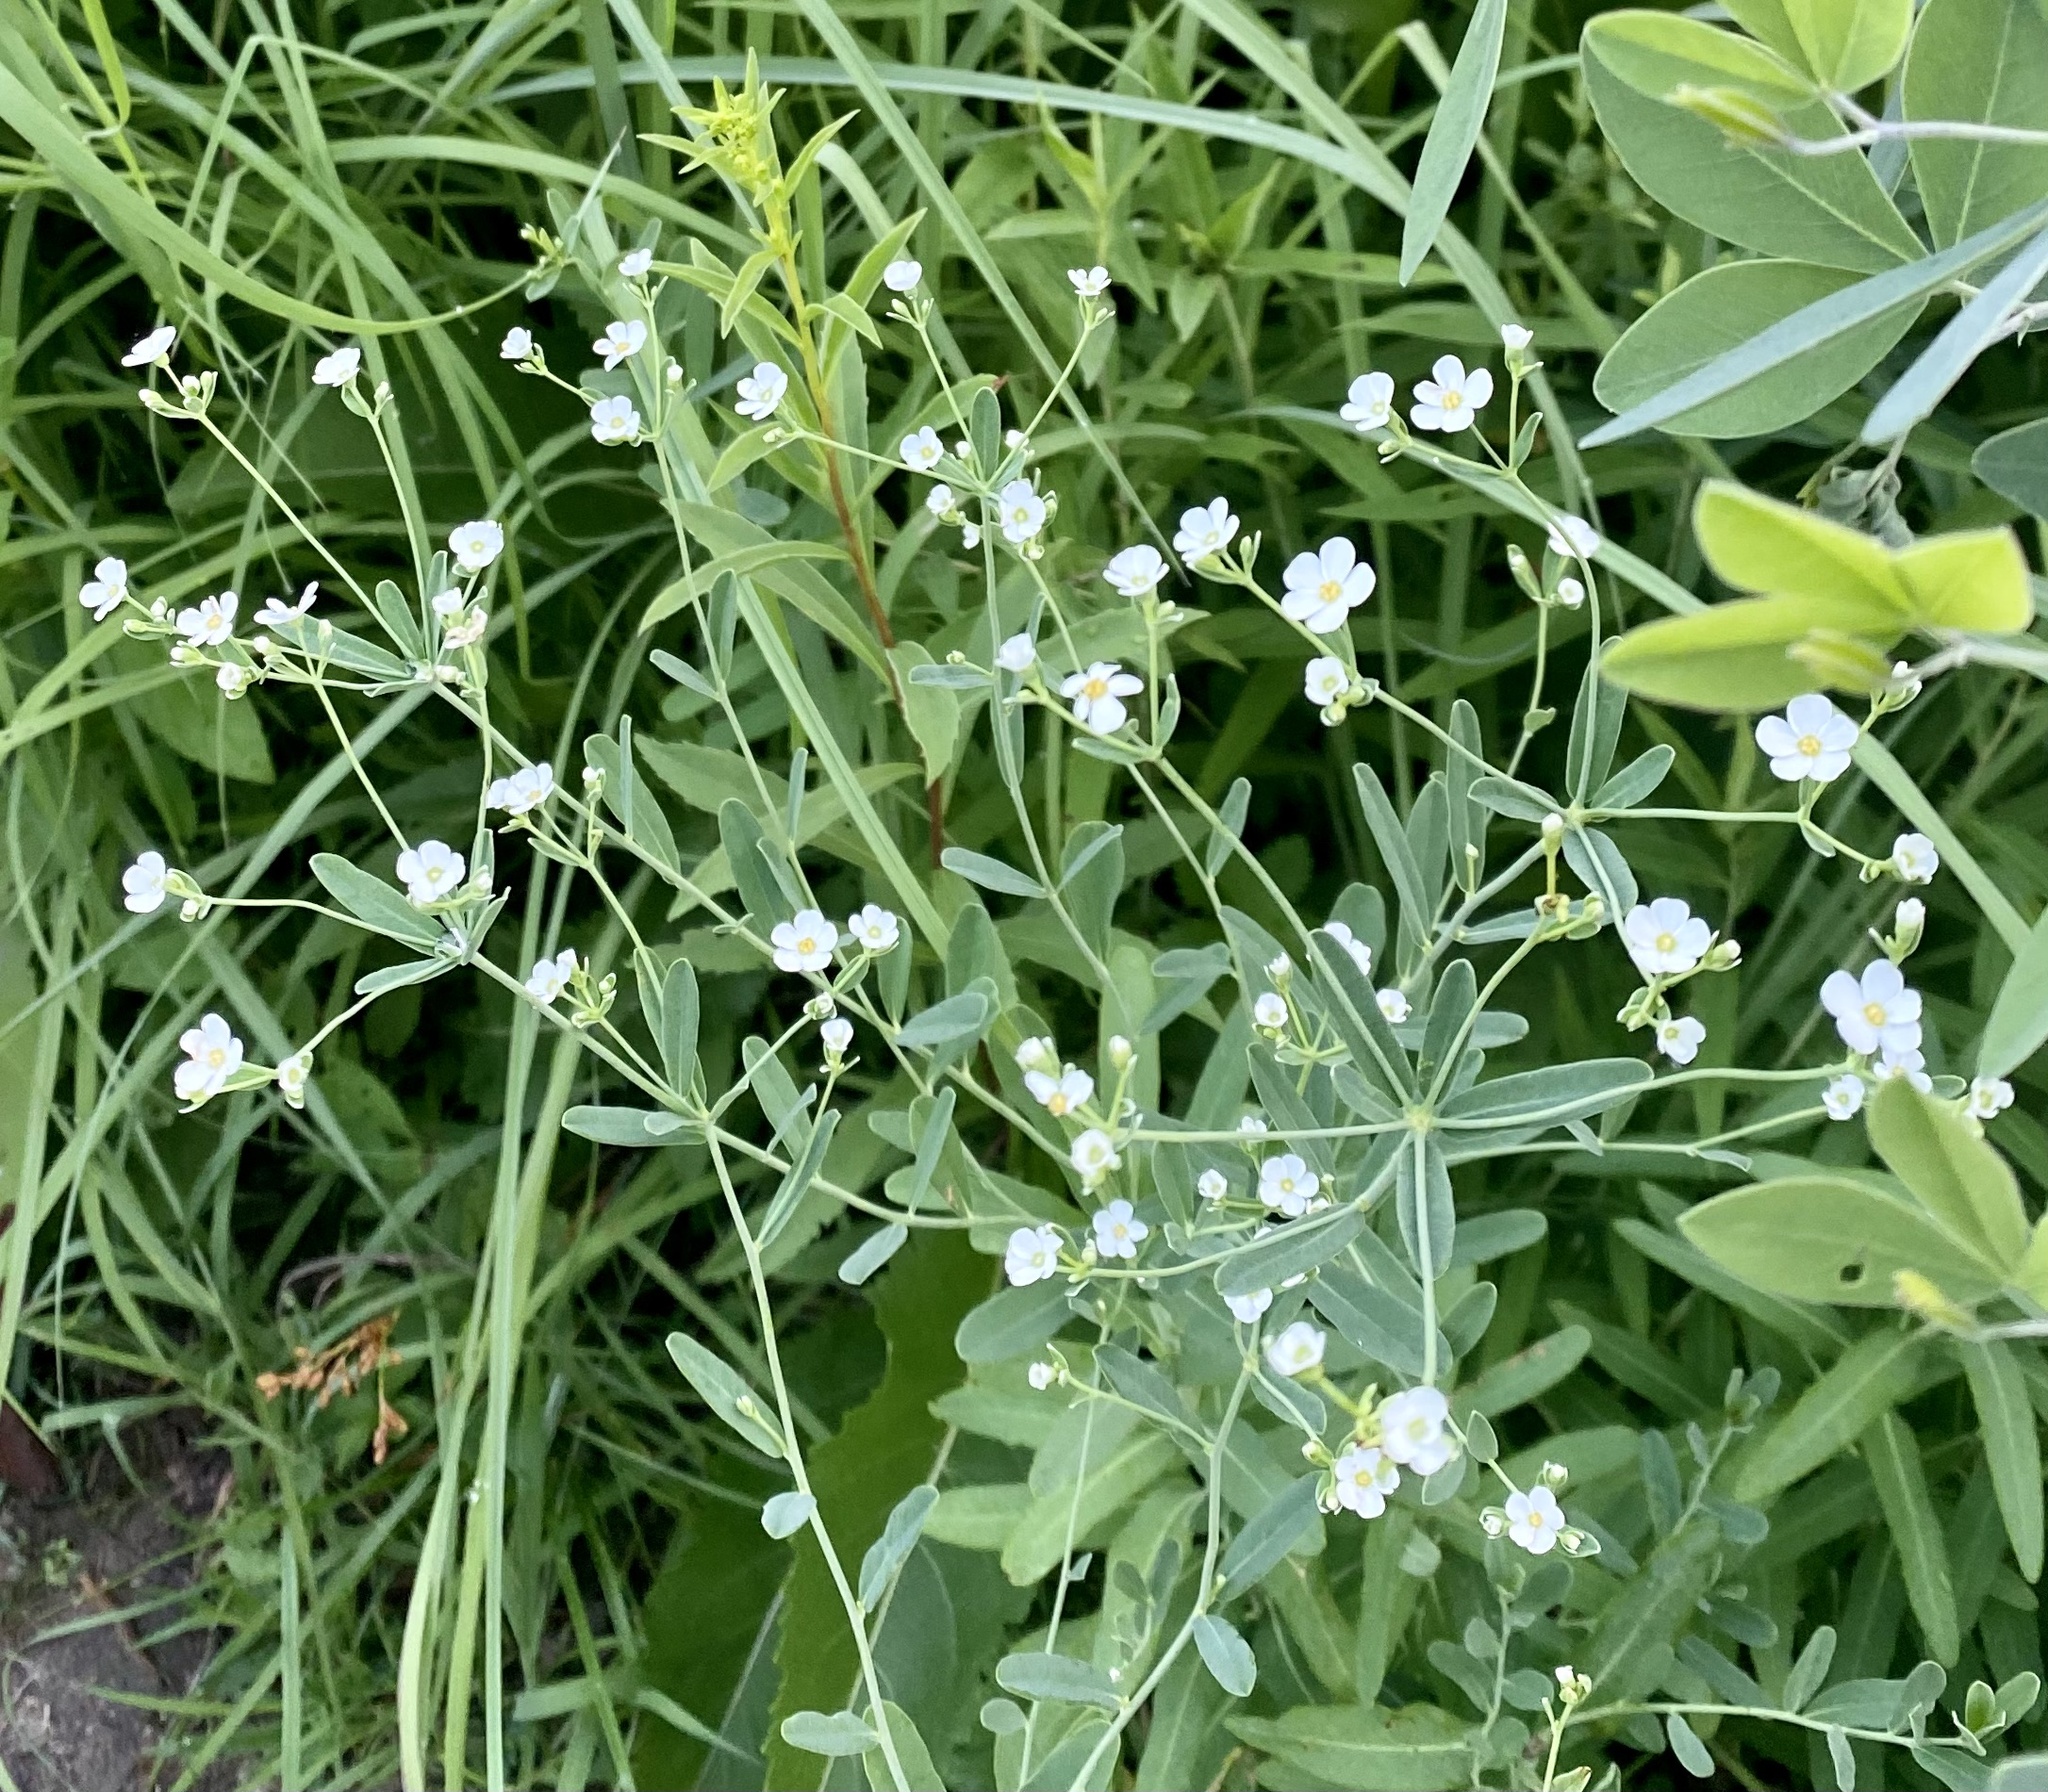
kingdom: Plantae
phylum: Tracheophyta
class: Magnoliopsida
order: Malpighiales
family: Euphorbiaceae
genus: Euphorbia
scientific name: Euphorbia corollata
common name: Flowering spurge
